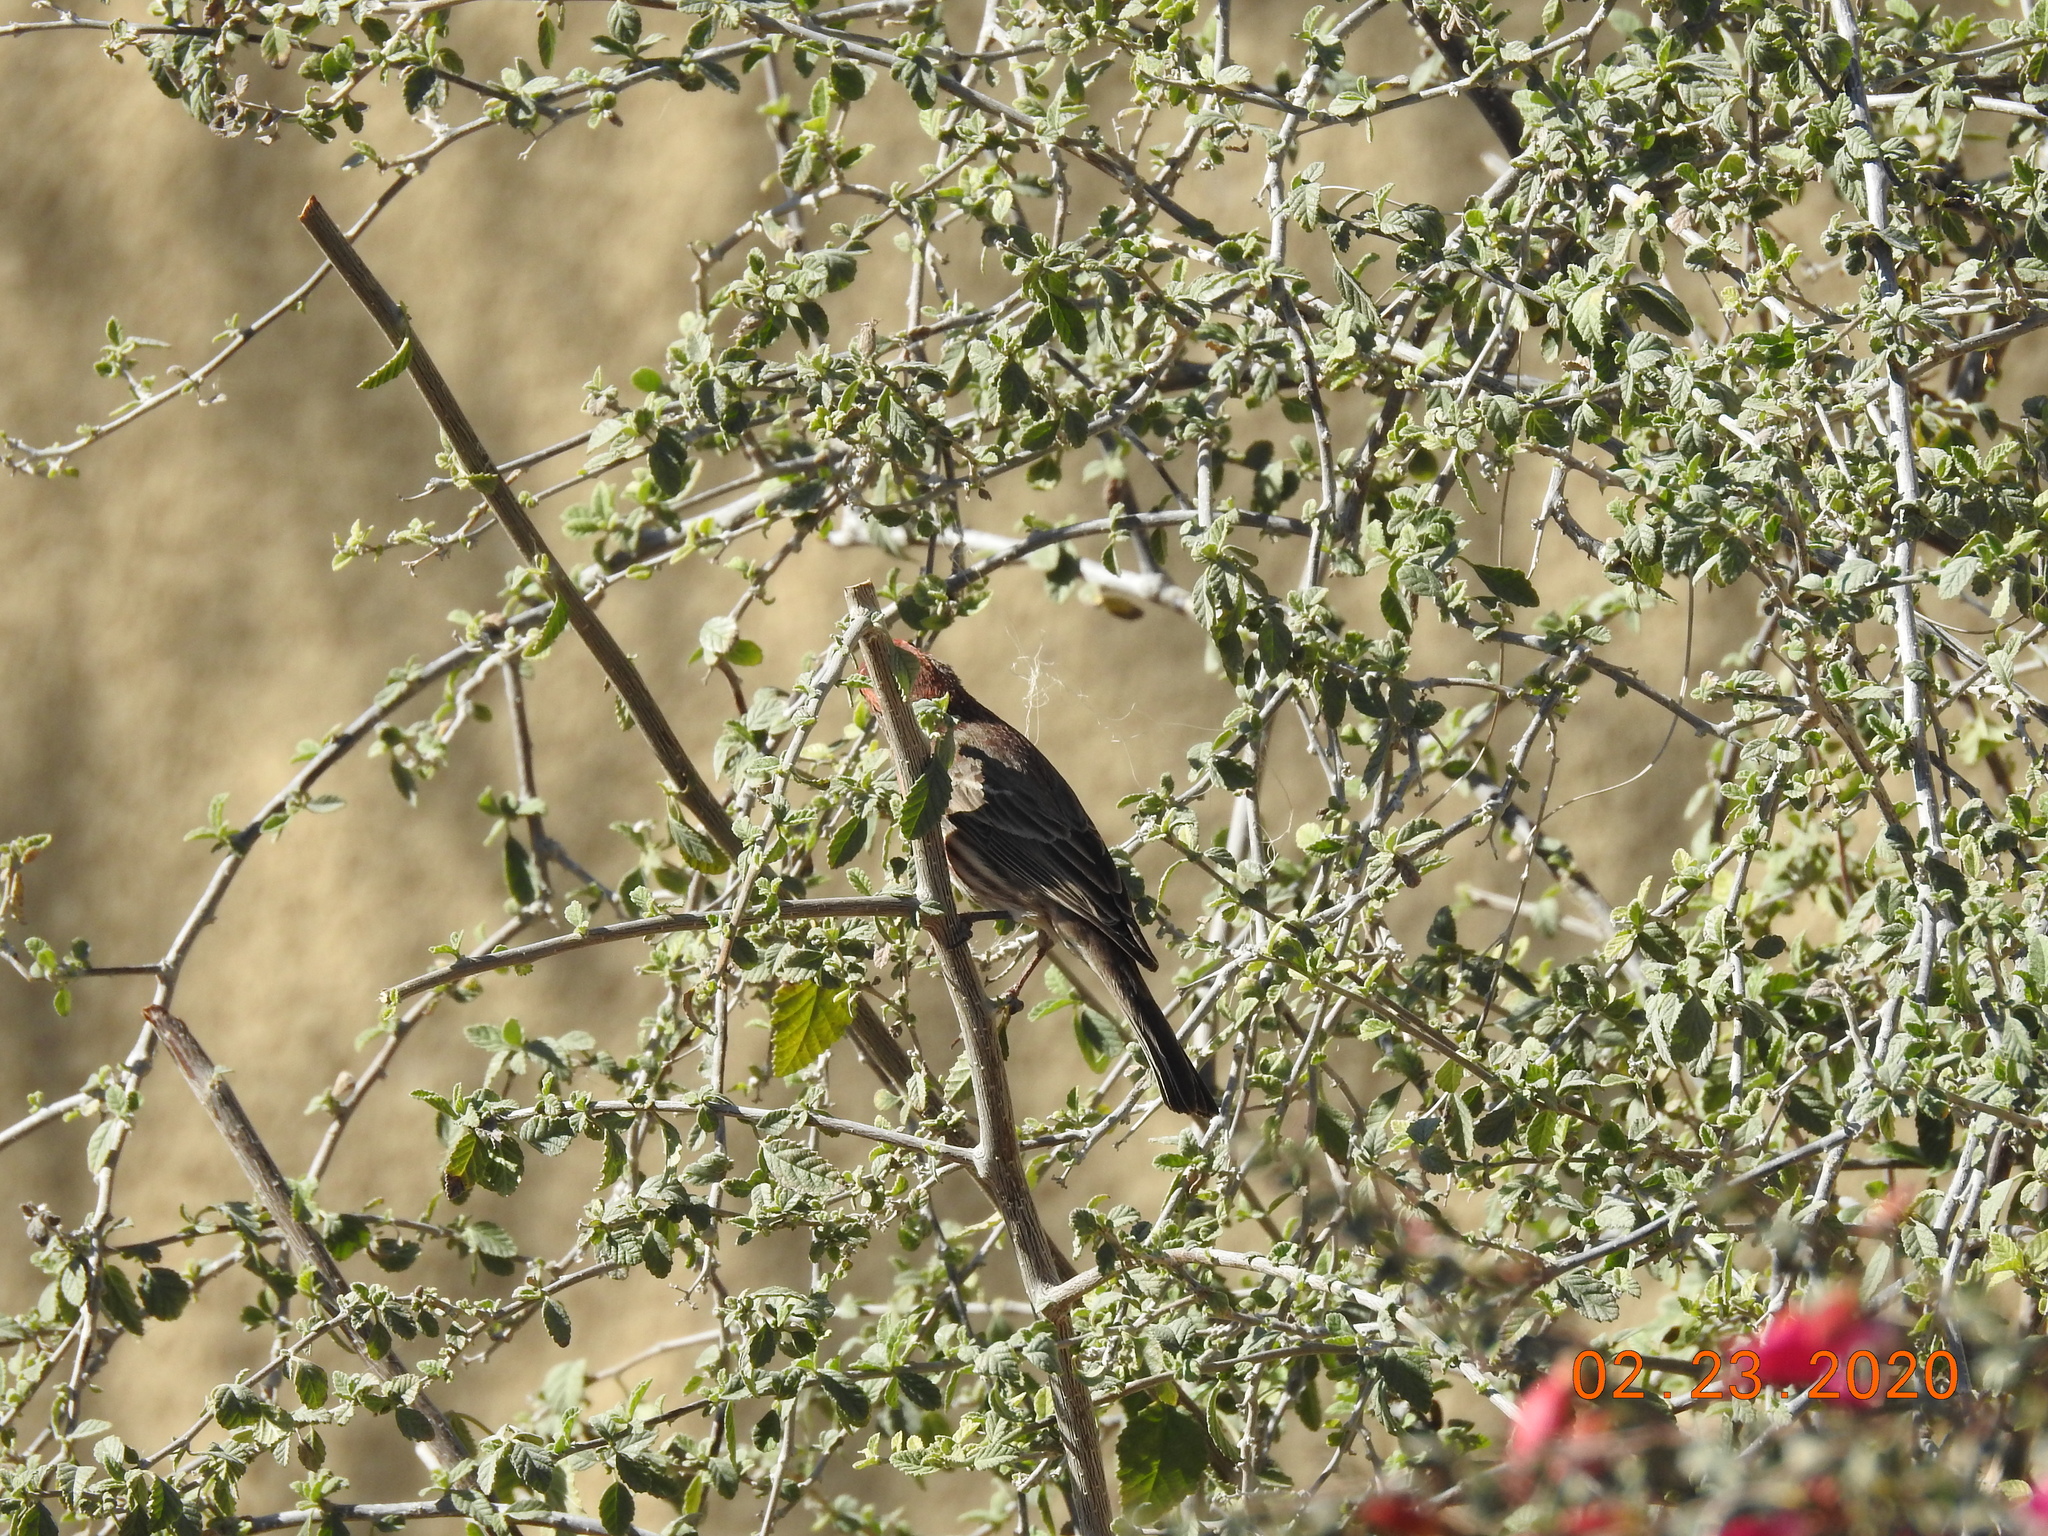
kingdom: Animalia
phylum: Chordata
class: Aves
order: Passeriformes
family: Fringillidae
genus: Haemorhous
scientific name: Haemorhous mexicanus
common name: House finch
